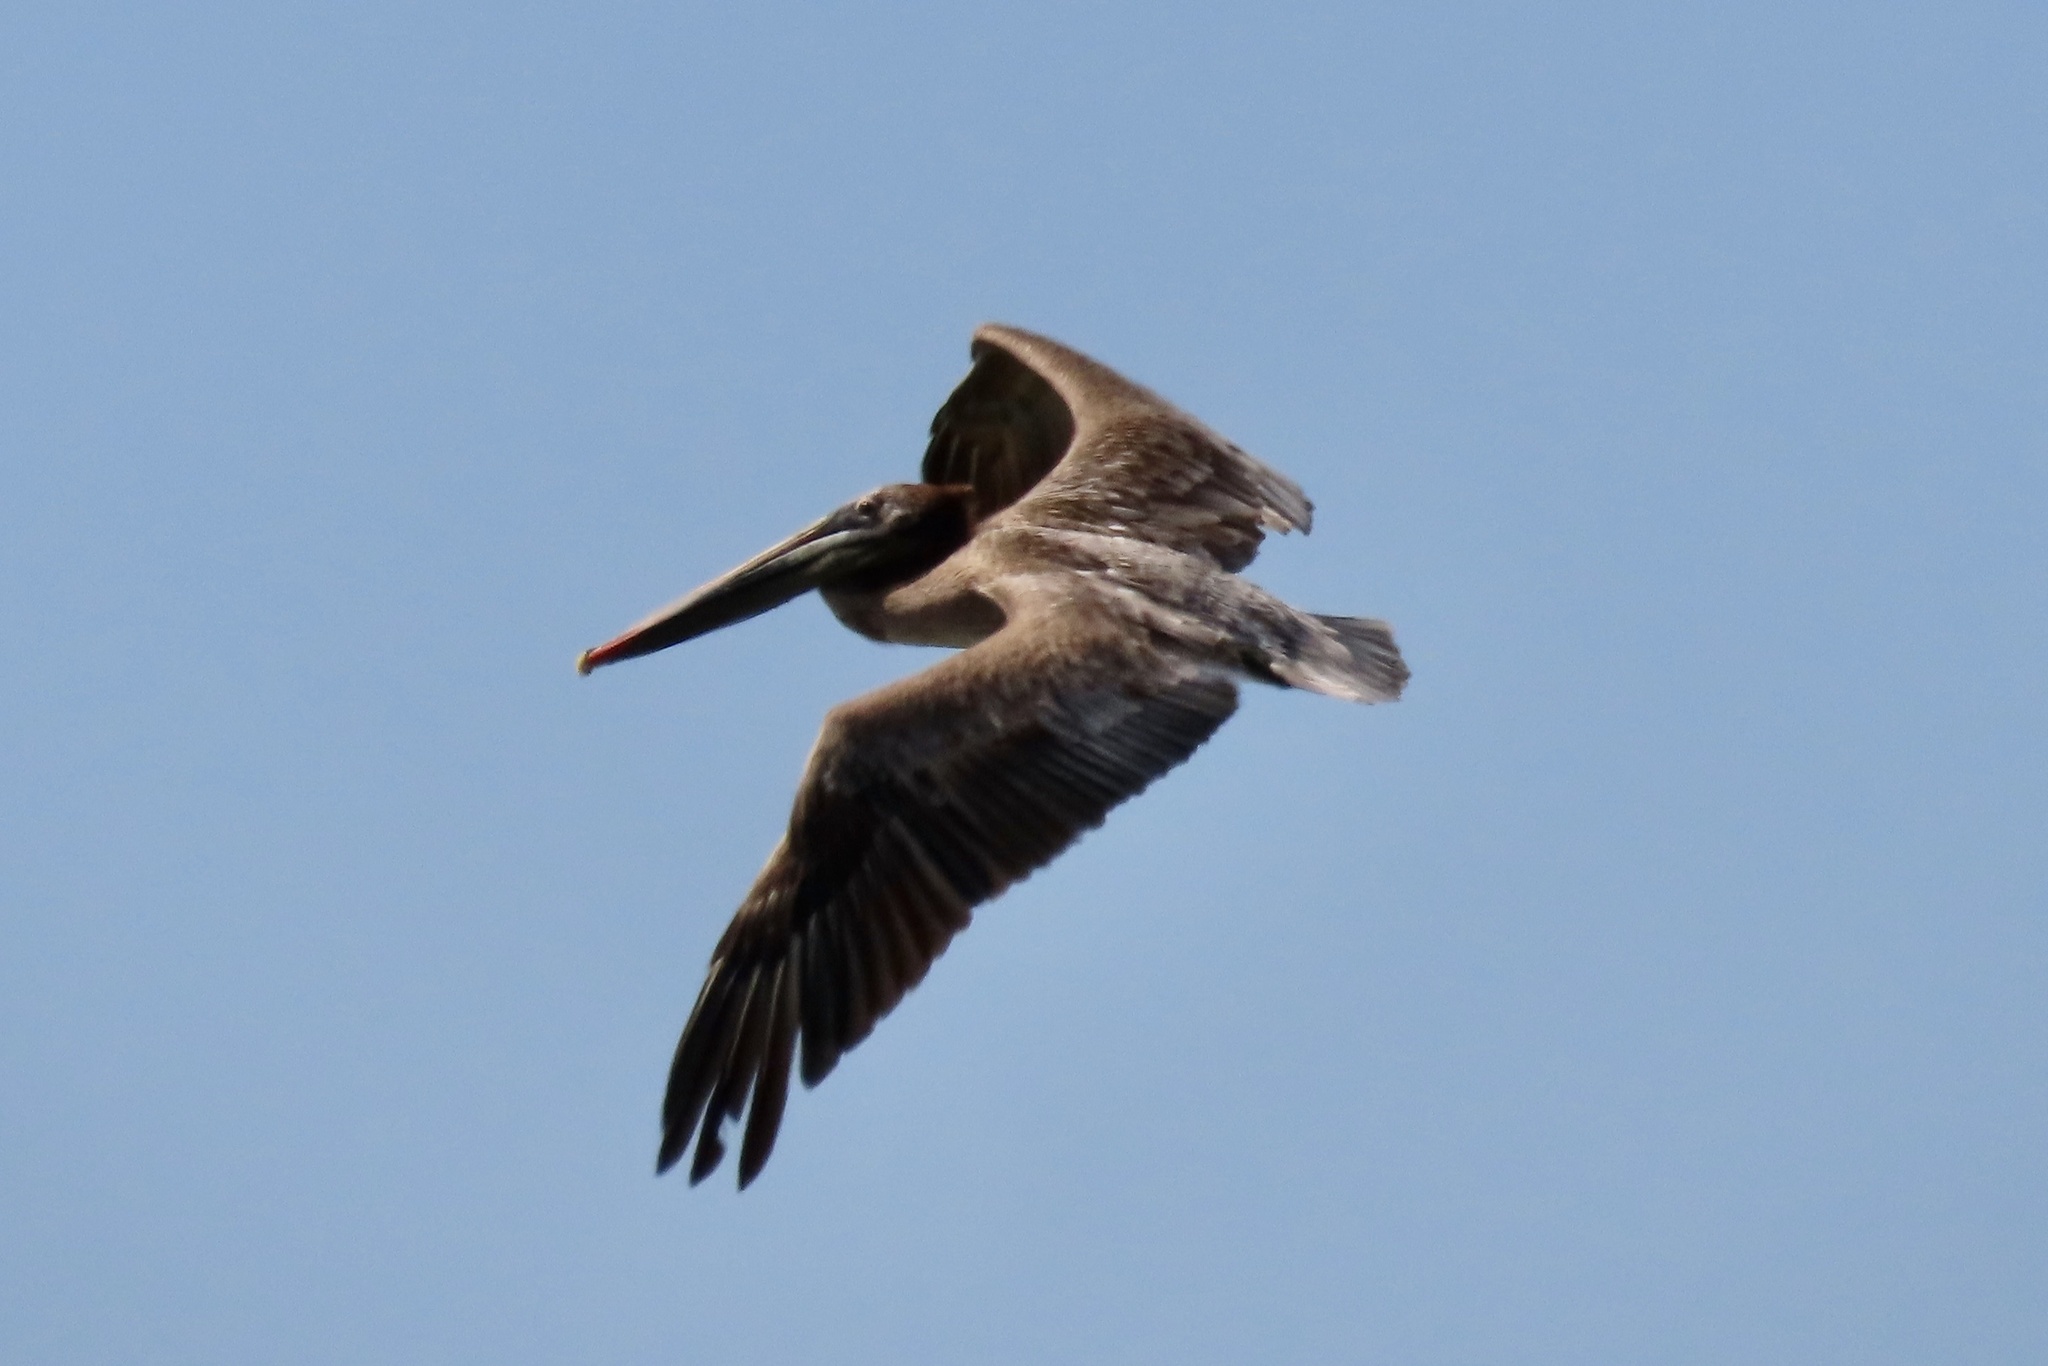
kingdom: Animalia
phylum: Chordata
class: Aves
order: Pelecaniformes
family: Pelecanidae
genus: Pelecanus
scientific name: Pelecanus occidentalis
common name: Brown pelican
